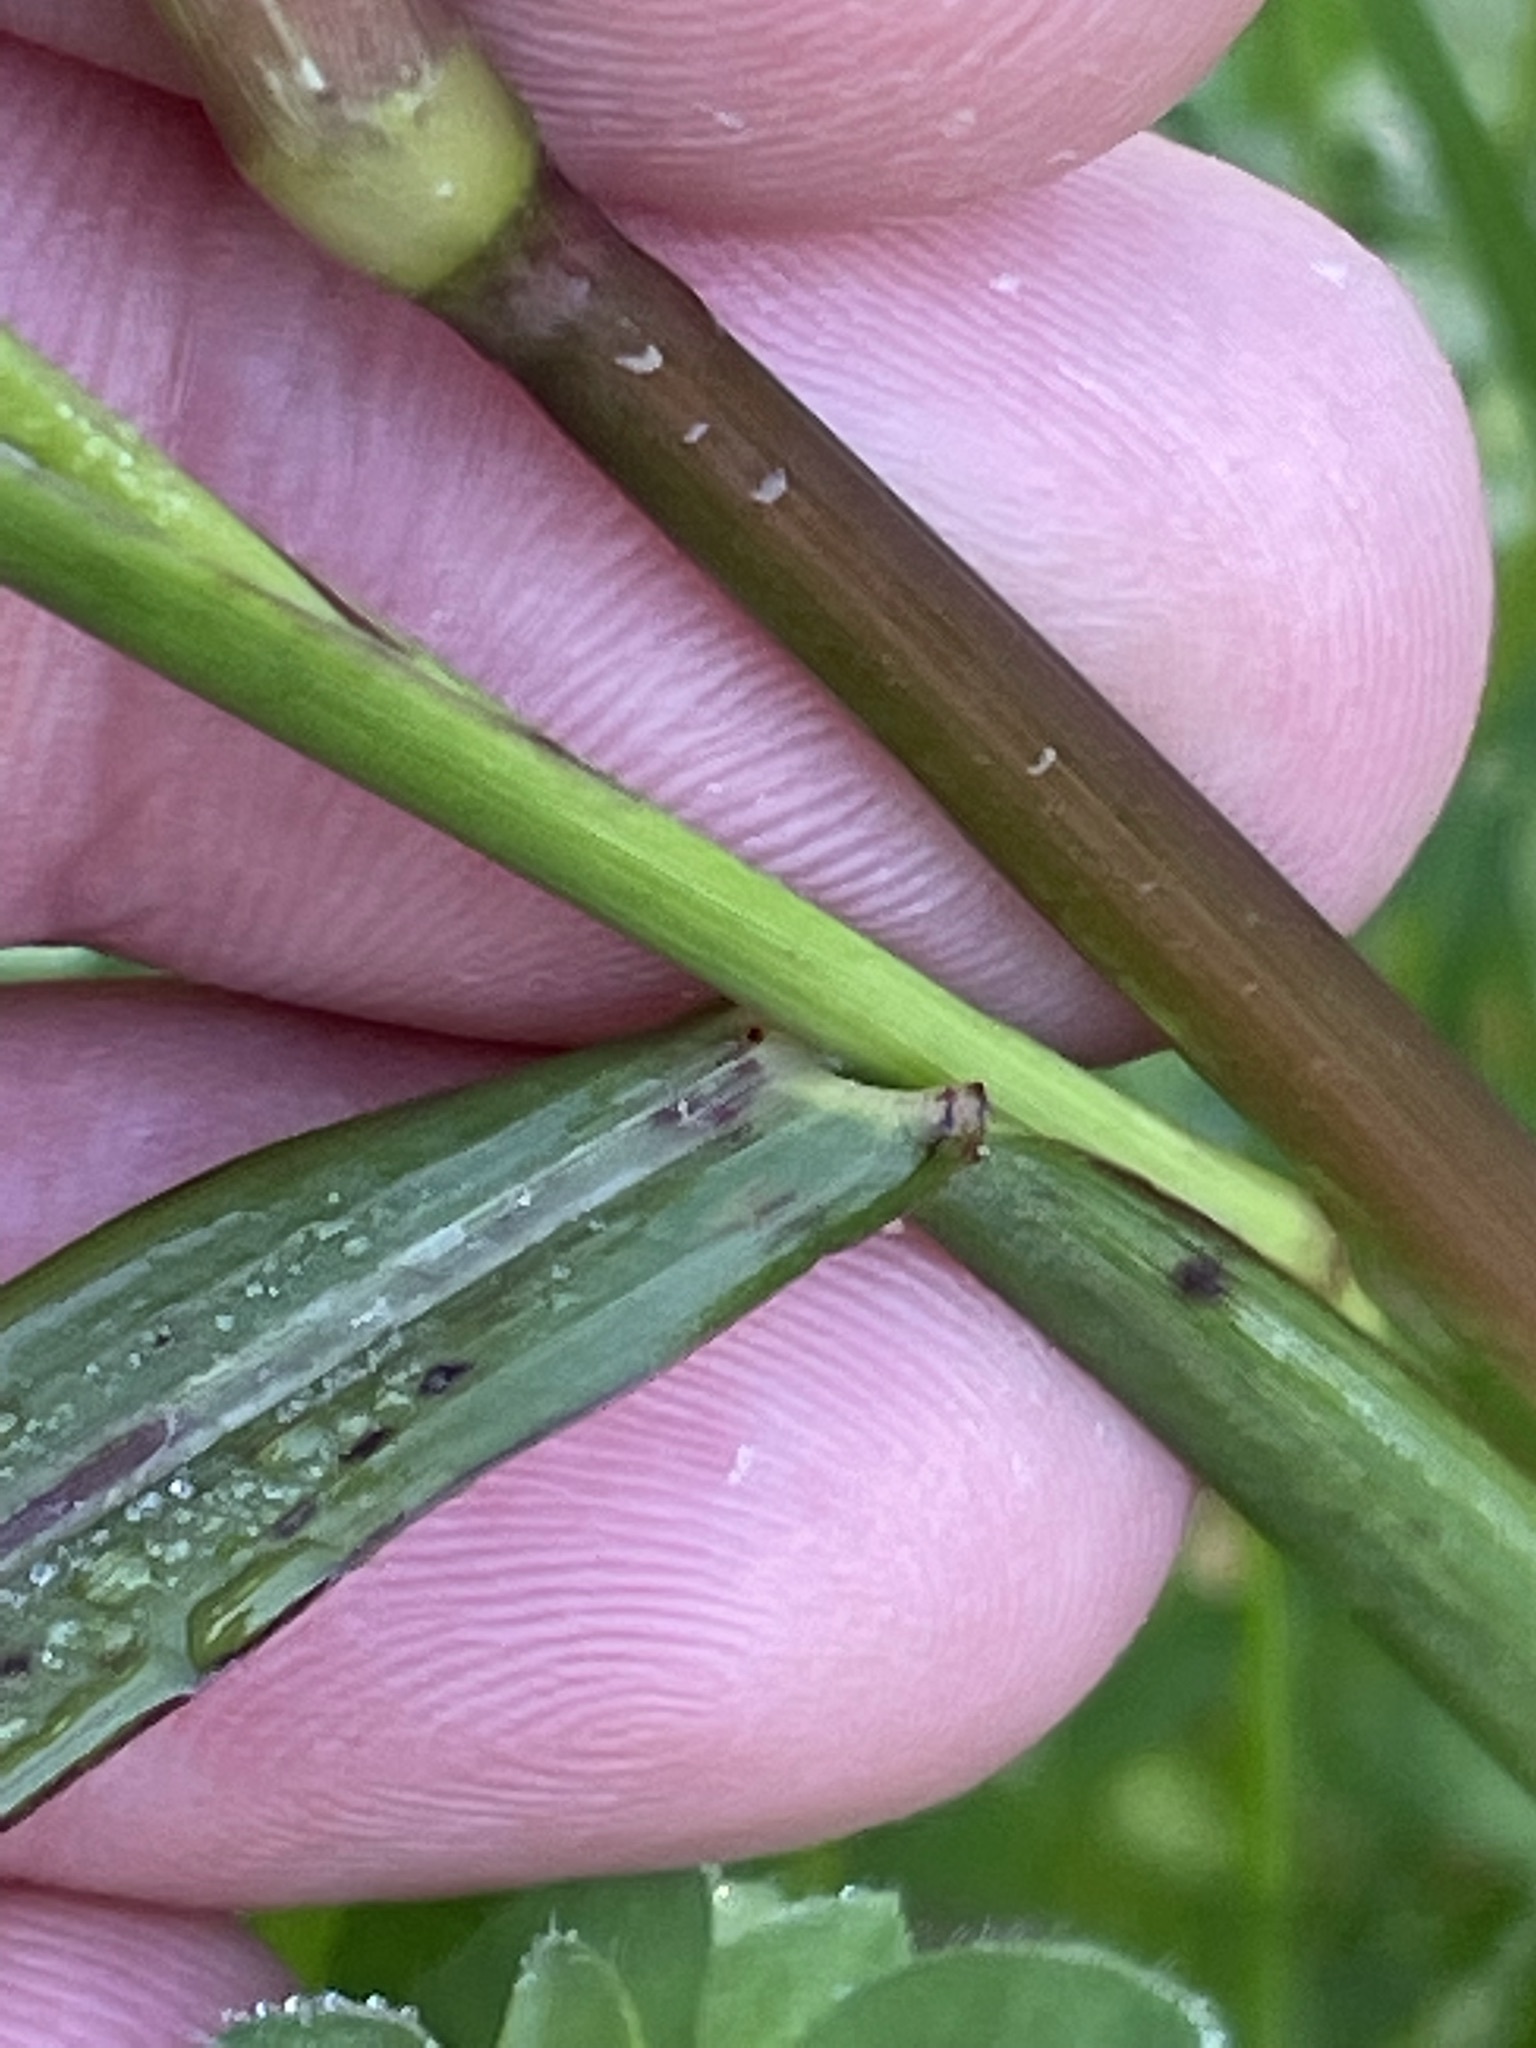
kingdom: Plantae
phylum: Tracheophyta
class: Liliopsida
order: Poales
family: Poaceae
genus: Echinochloa
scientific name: Echinochloa crus-galli
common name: Cockspur
